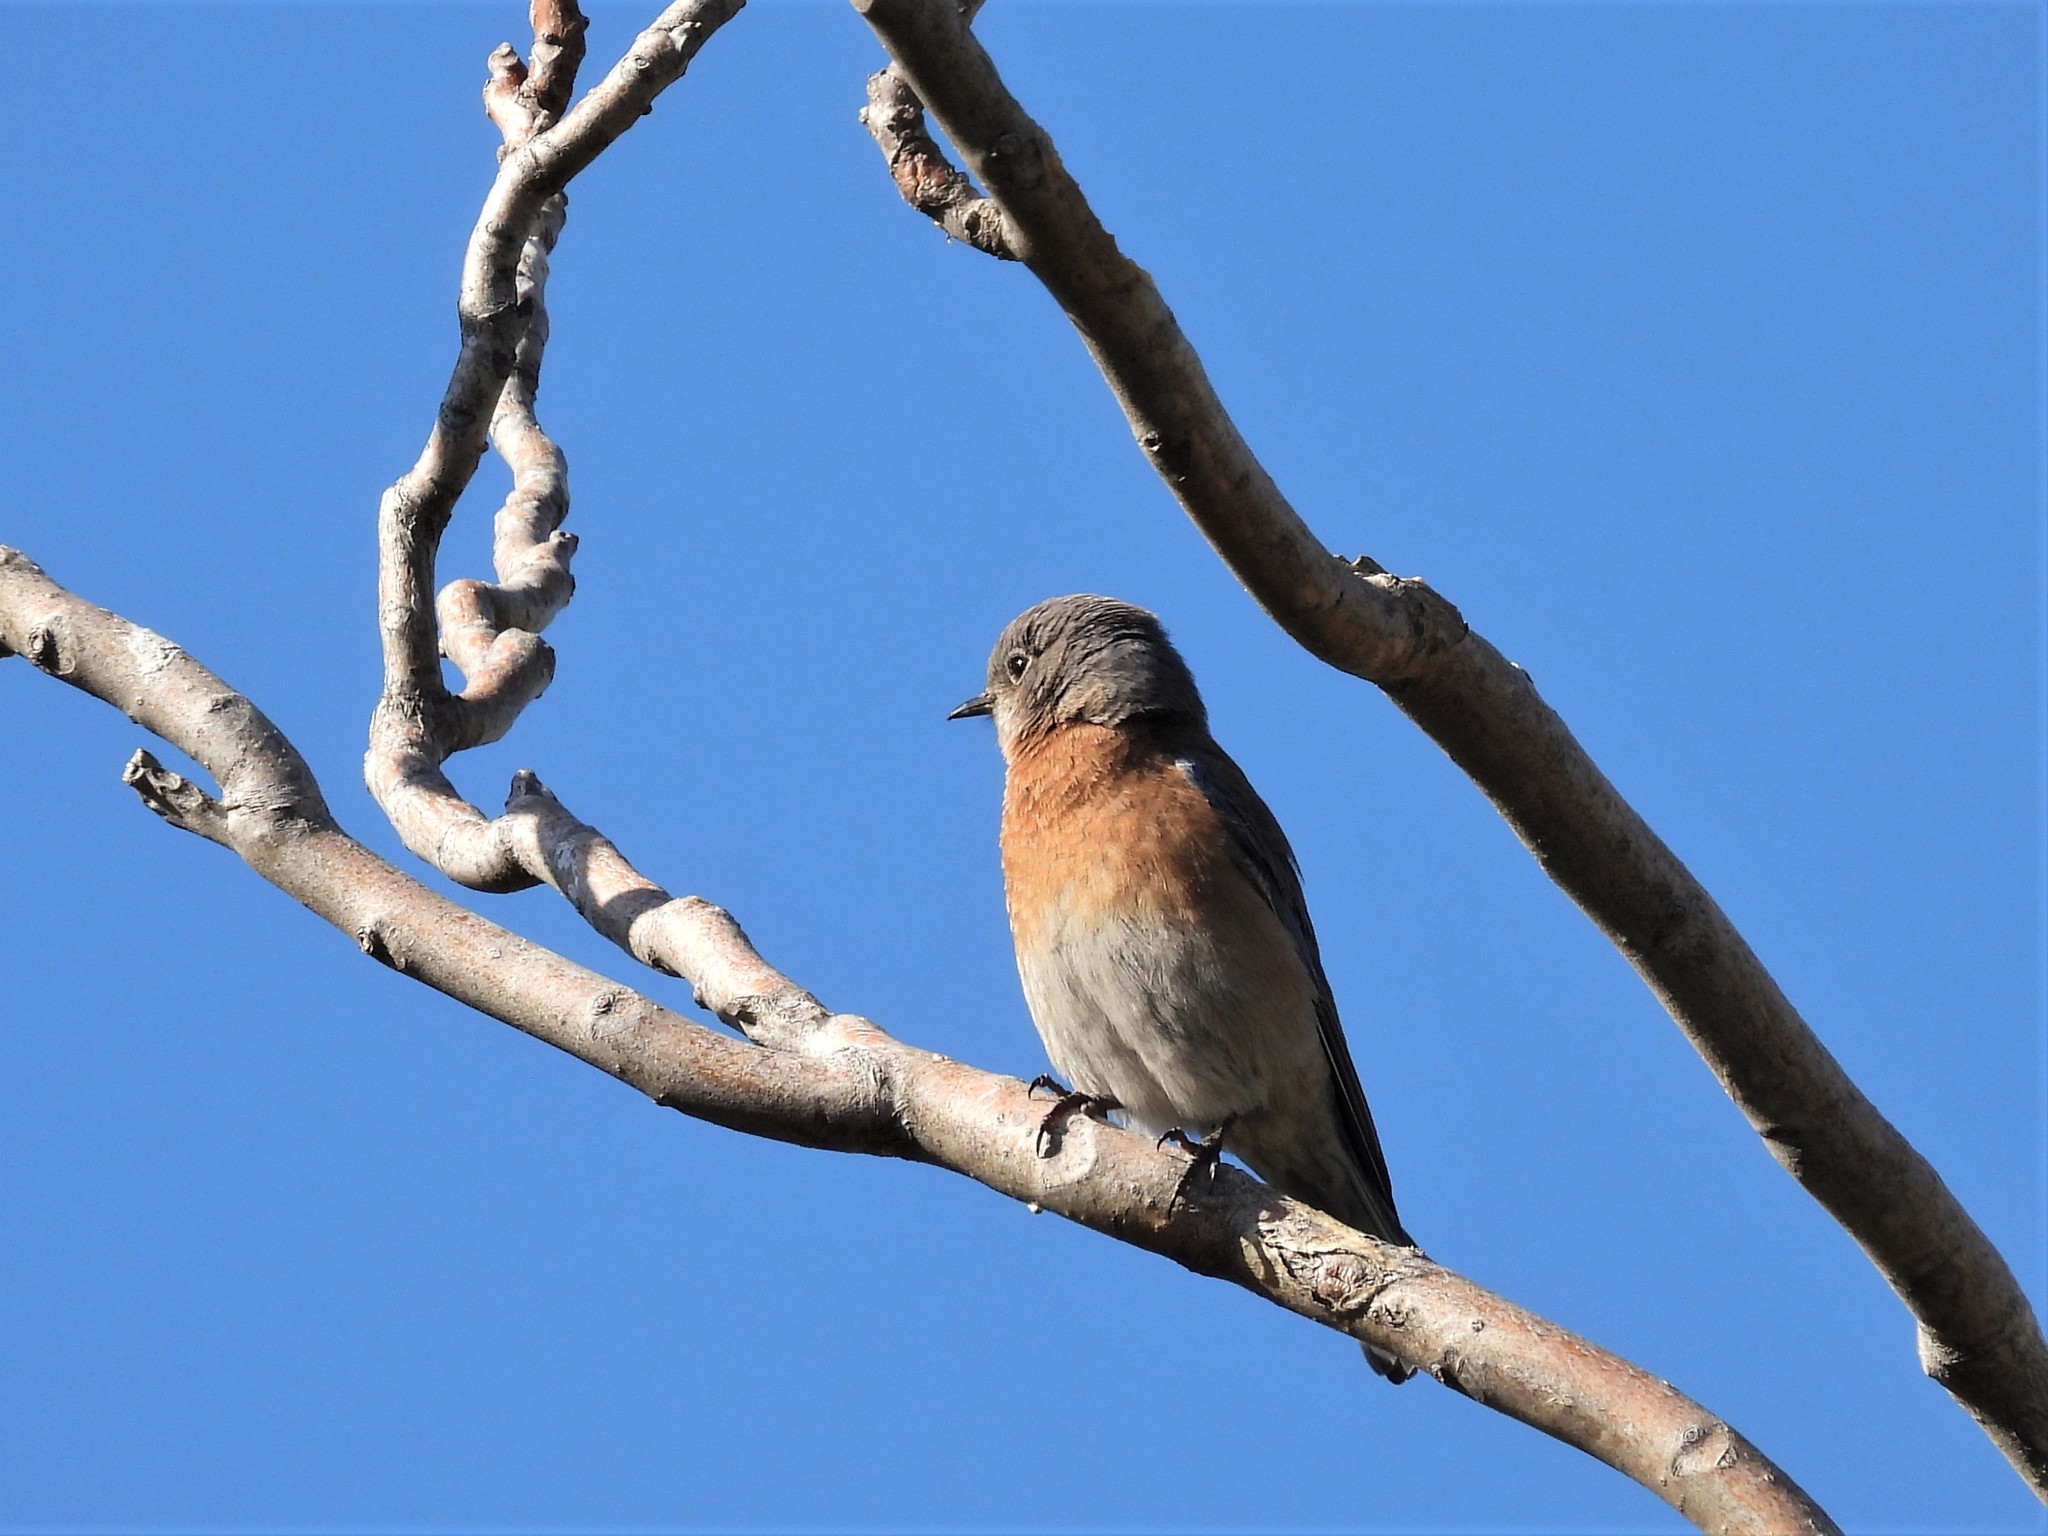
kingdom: Animalia
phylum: Chordata
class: Aves
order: Passeriformes
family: Turdidae
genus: Sialia
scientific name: Sialia mexicana
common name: Western bluebird
